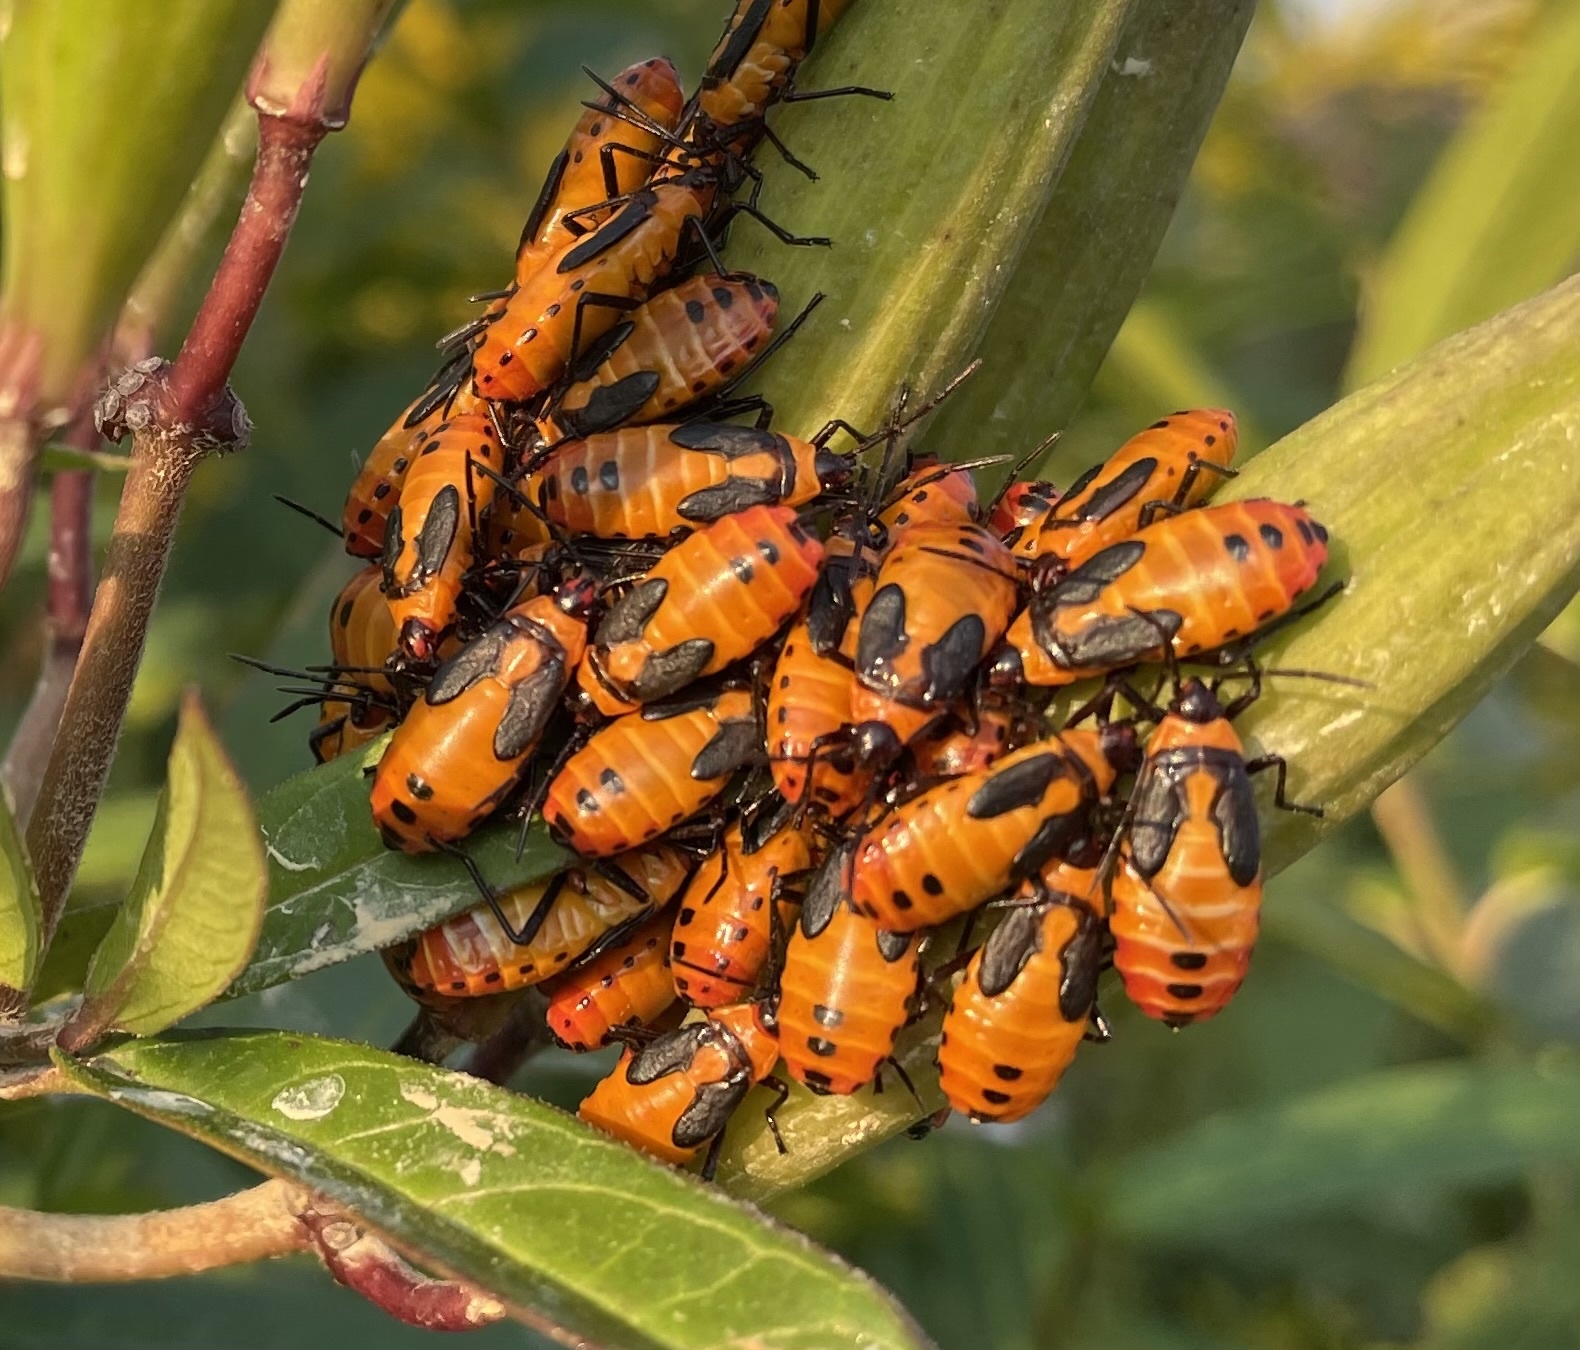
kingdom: Animalia
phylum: Arthropoda
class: Insecta
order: Hemiptera
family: Lygaeidae
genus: Oncopeltus
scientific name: Oncopeltus fasciatus
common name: Large milkweed bug
